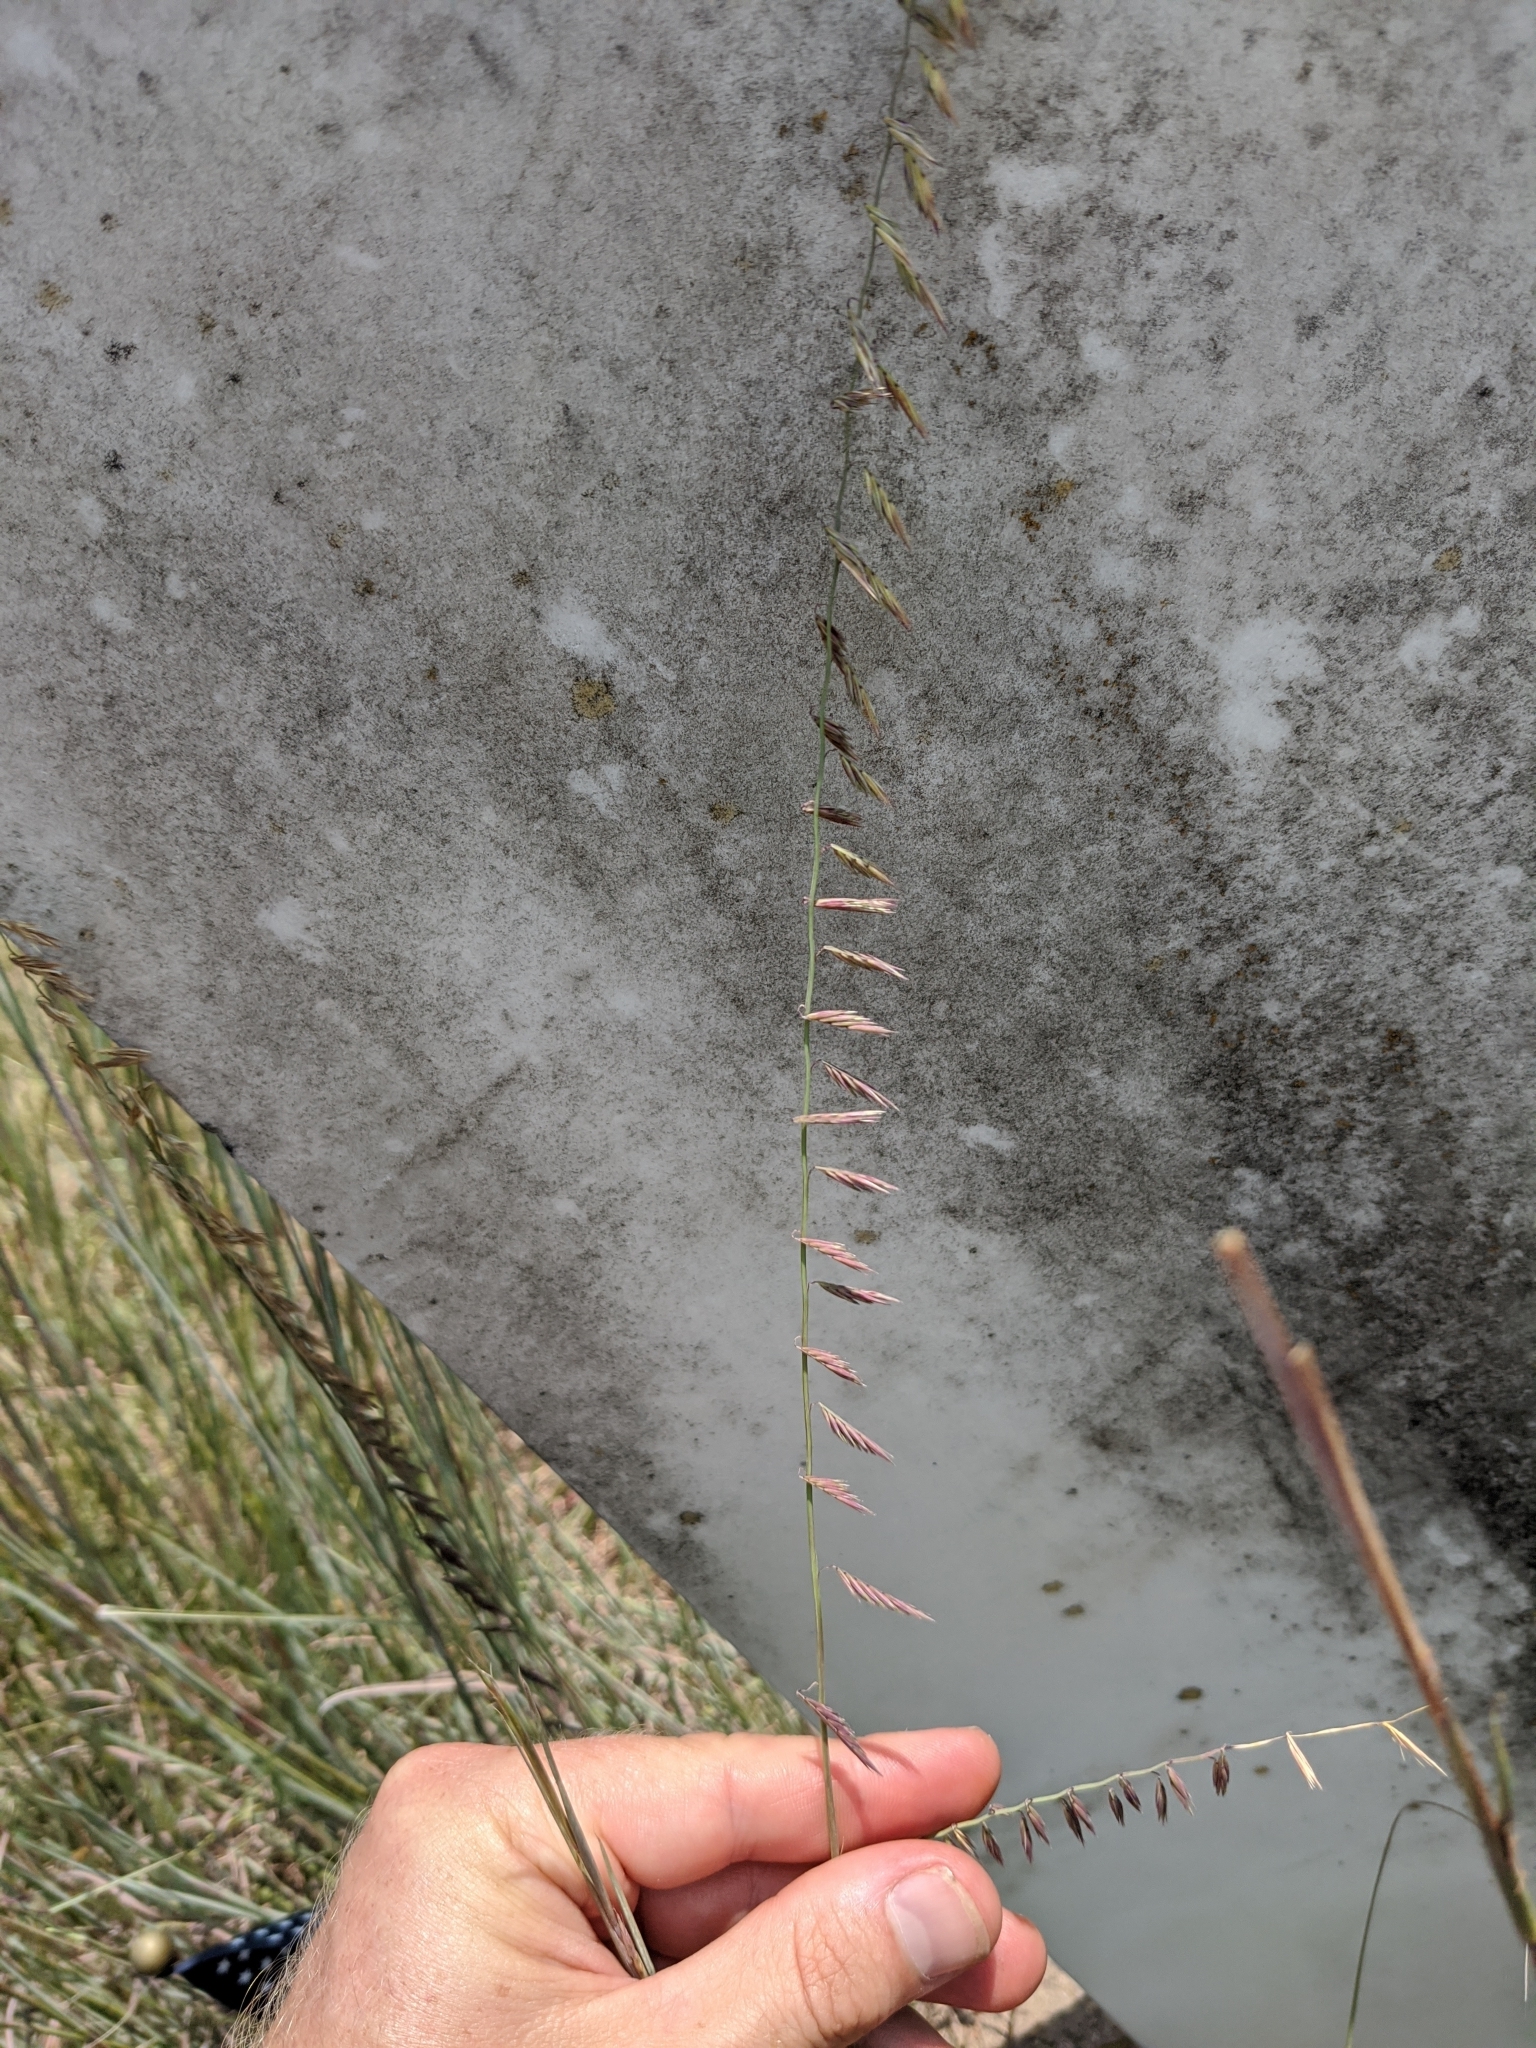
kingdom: Plantae
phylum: Tracheophyta
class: Liliopsida
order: Poales
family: Poaceae
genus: Bouteloua
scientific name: Bouteloua curtipendula
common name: Side-oats grama
